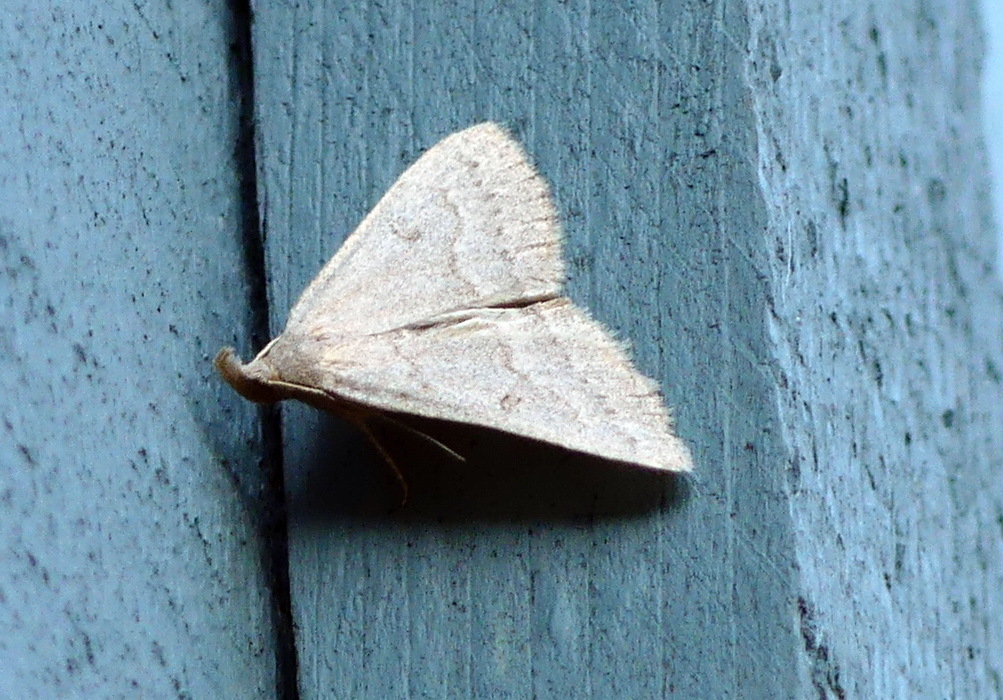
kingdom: Animalia
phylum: Arthropoda
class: Insecta
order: Lepidoptera
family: Erebidae
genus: Macrochilo
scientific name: Macrochilo morbidalis
